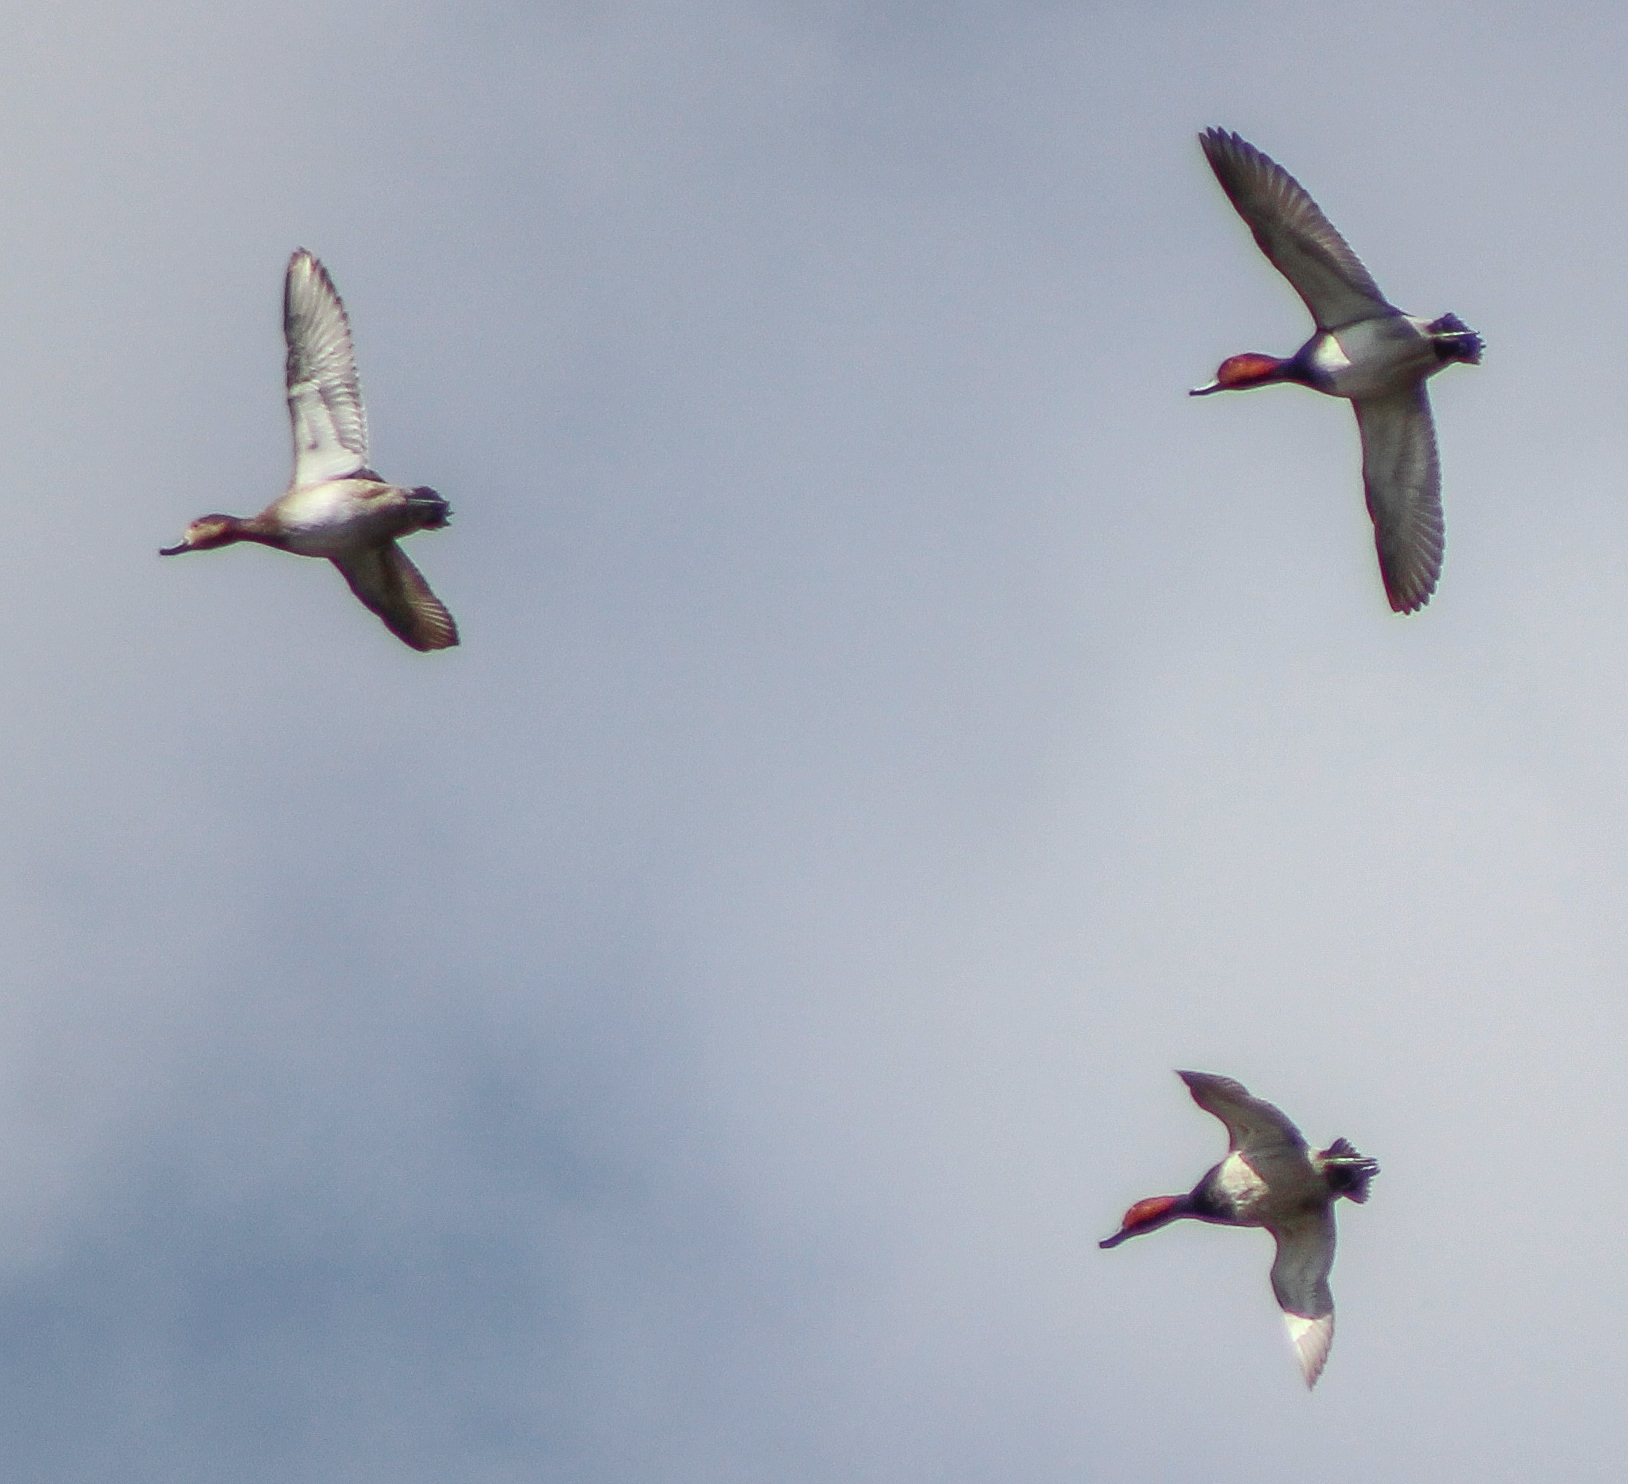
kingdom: Animalia
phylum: Chordata
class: Aves
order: Anseriformes
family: Anatidae
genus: Aythya
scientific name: Aythya americana
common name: Redhead
